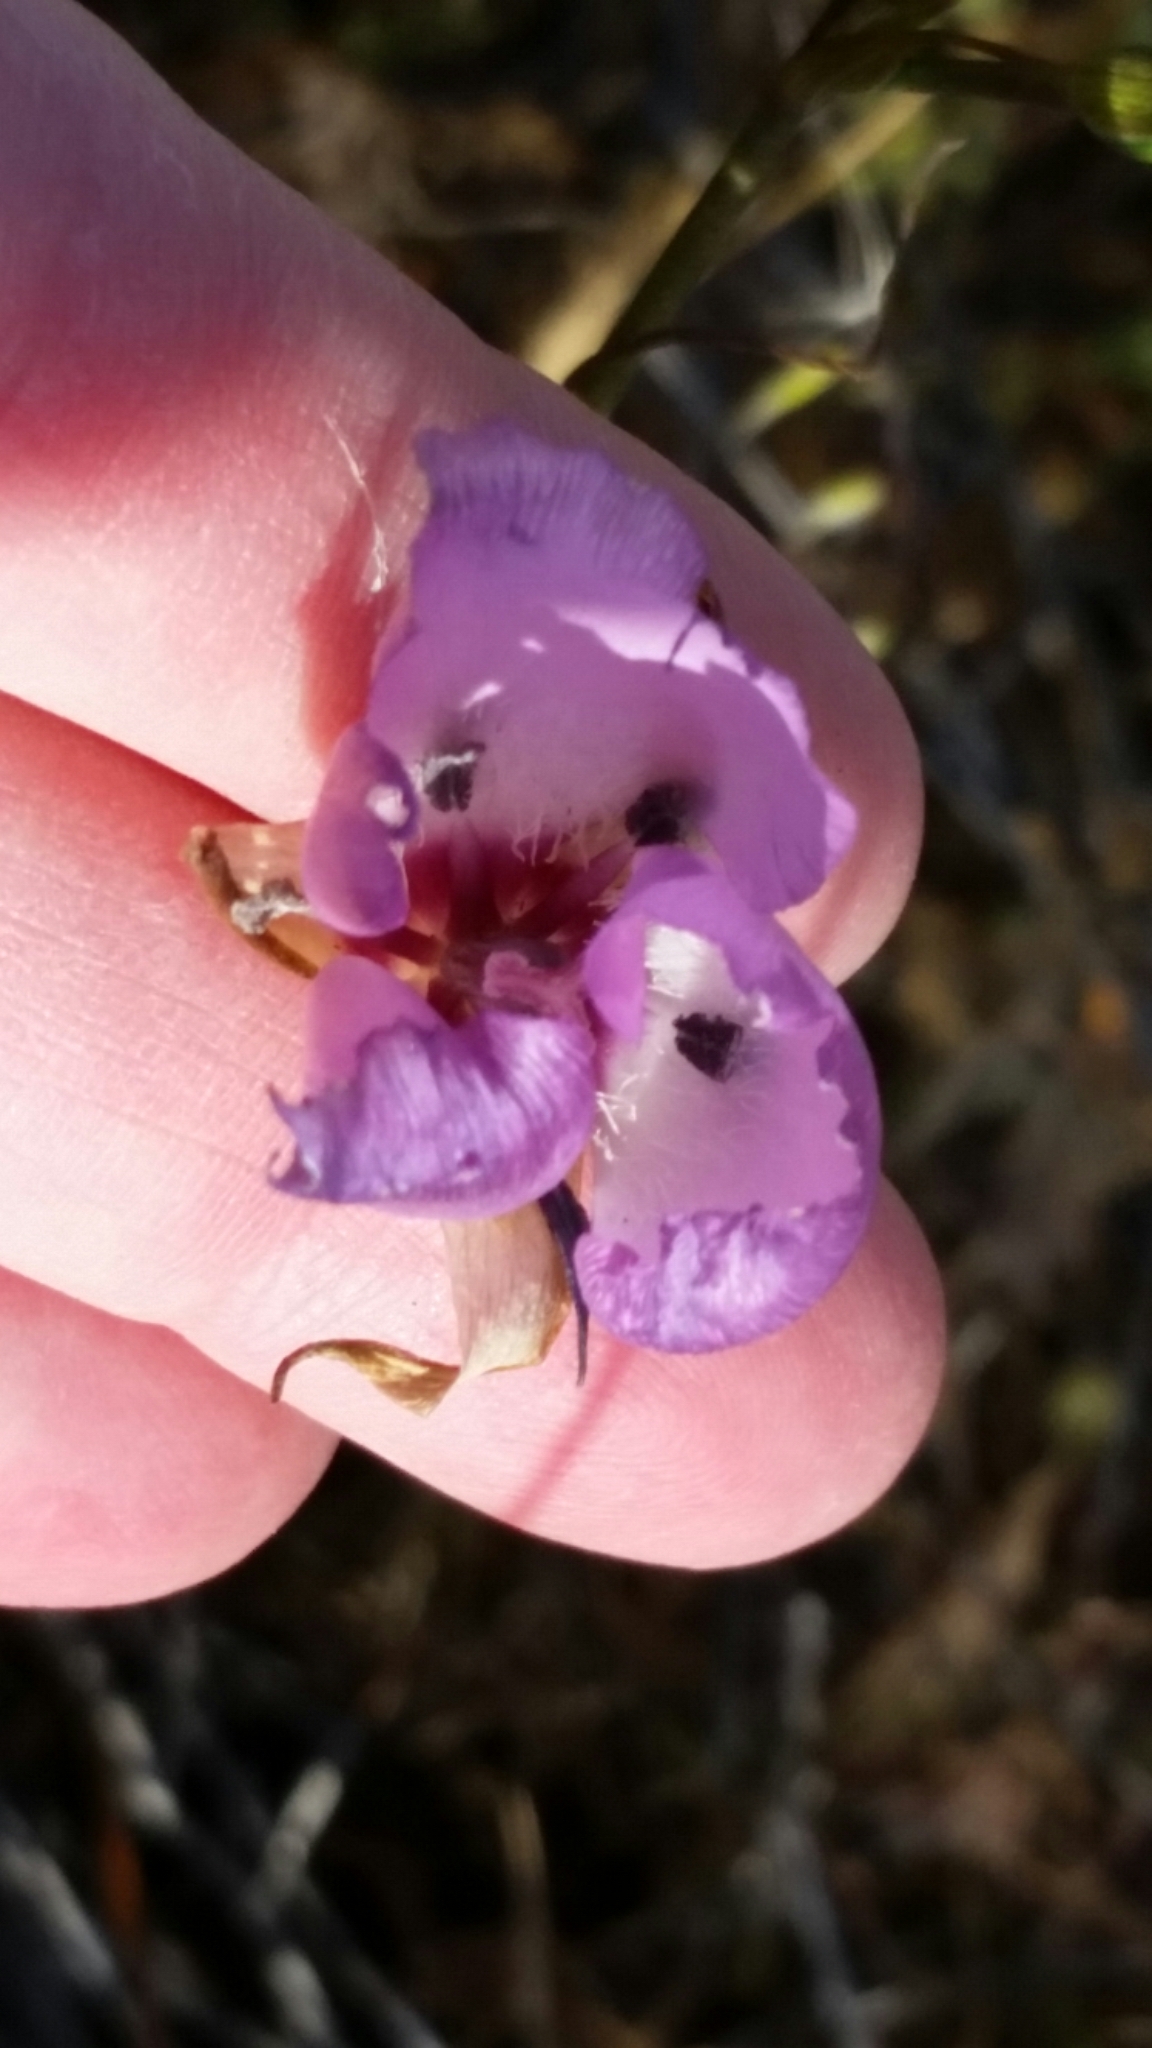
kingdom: Plantae
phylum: Tracheophyta
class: Liliopsida
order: Liliales
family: Liliaceae
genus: Calochortus
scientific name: Calochortus splendens
